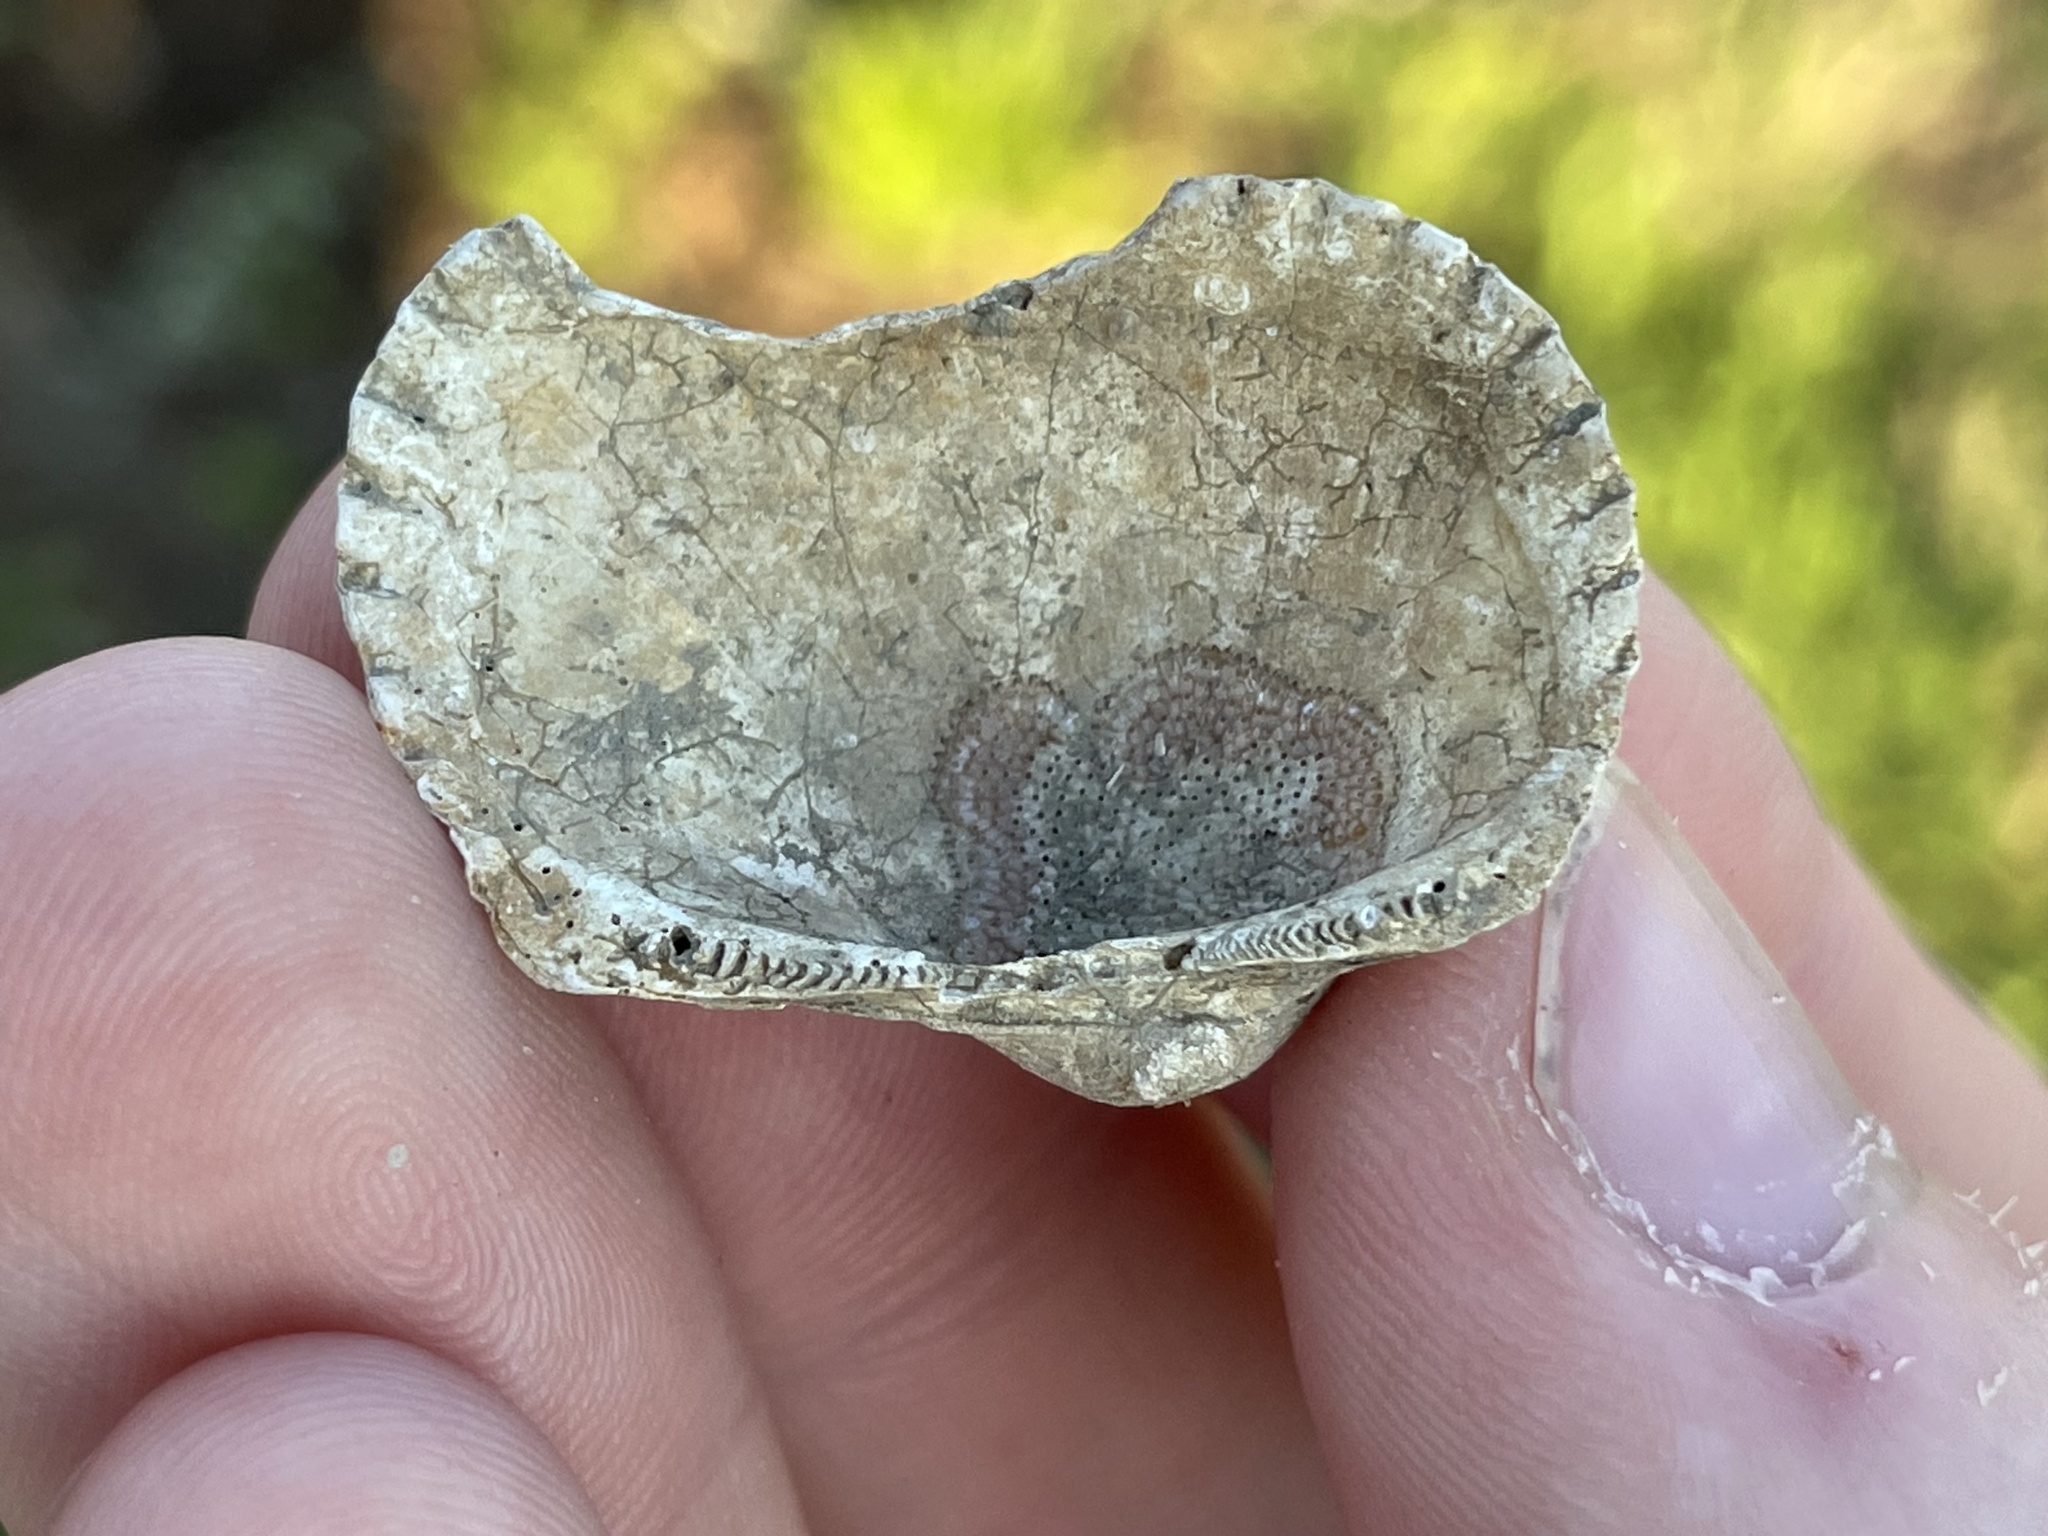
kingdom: Animalia
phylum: Mollusca
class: Bivalvia
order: Arcida
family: Arcidae
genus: Anadara
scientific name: Anadara transversa
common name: Transverse ark
